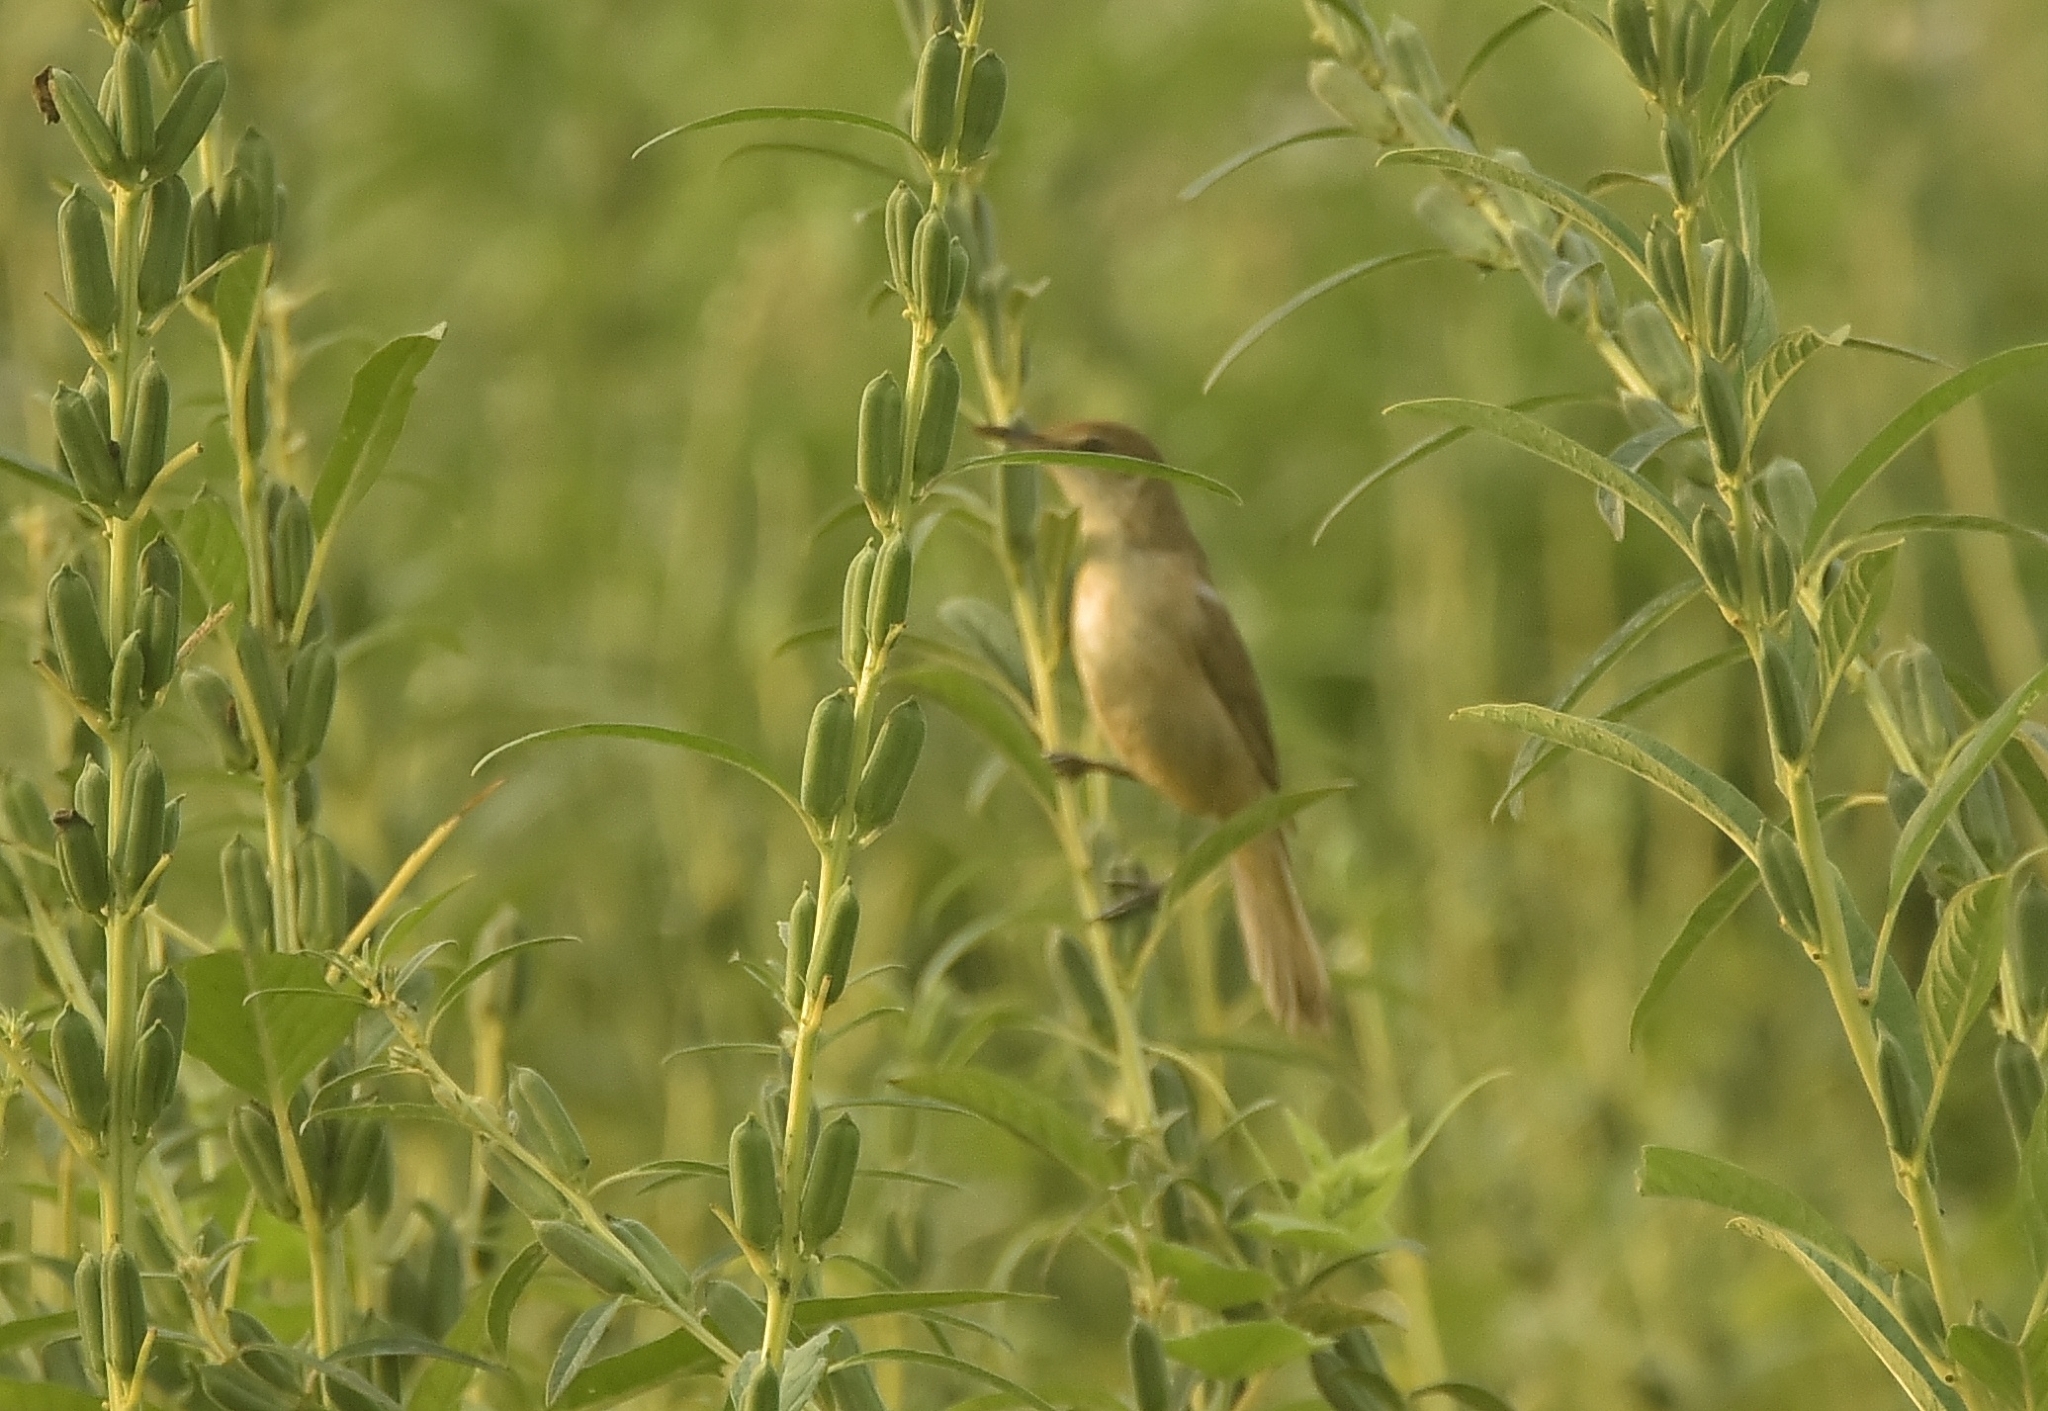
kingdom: Animalia
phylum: Chordata
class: Aves
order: Passeriformes
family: Acrocephalidae
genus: Acrocephalus
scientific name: Acrocephalus stentoreus
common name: Clamorous reed warbler
